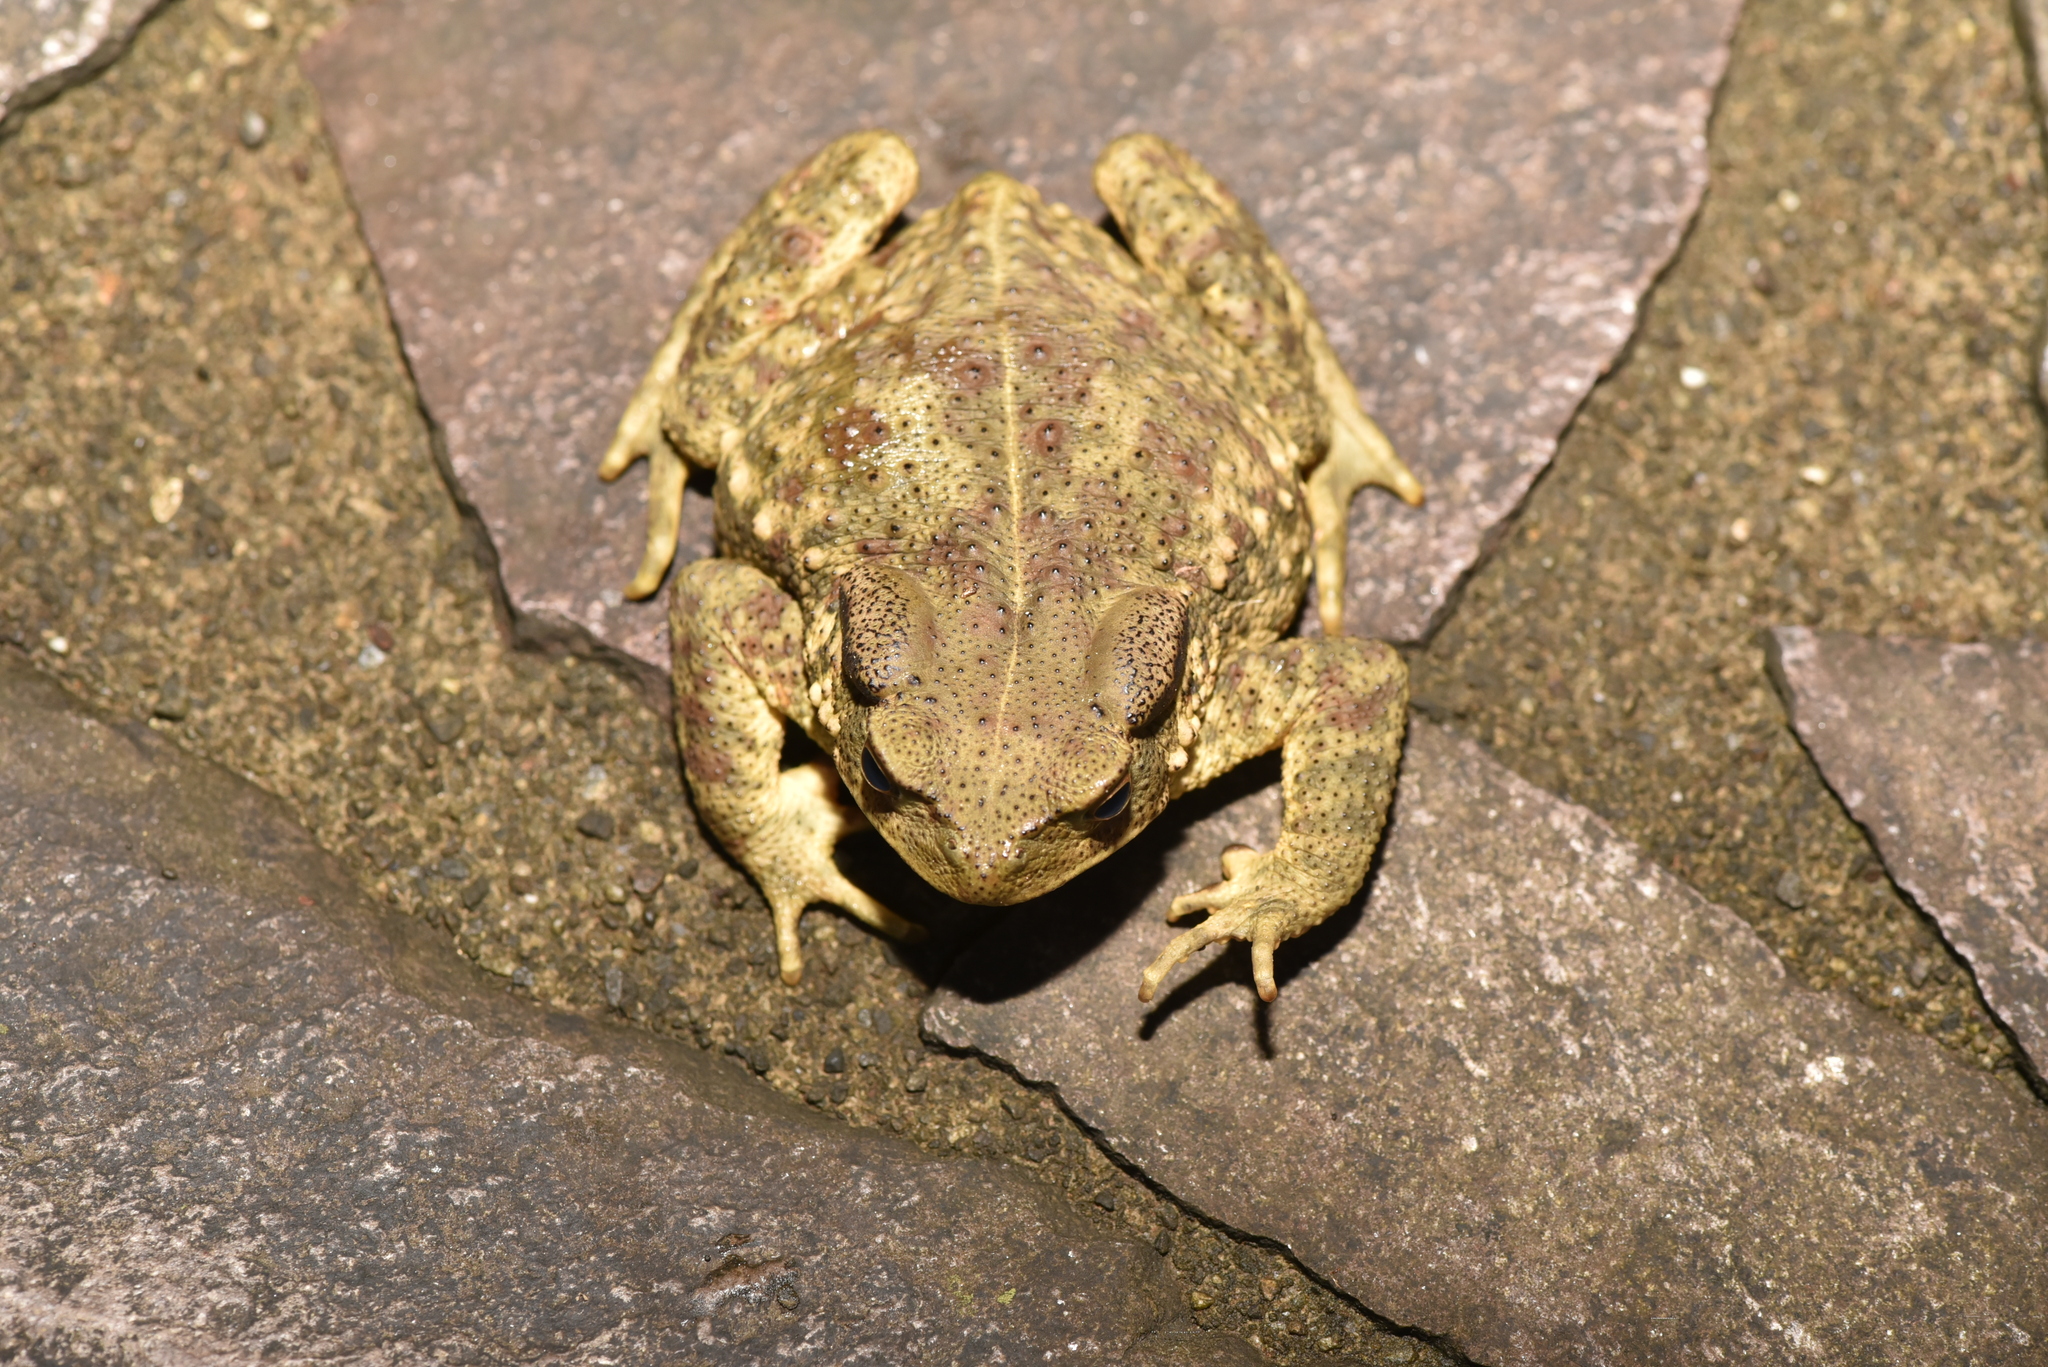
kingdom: Animalia
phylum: Chordata
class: Amphibia
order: Anura
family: Bufonidae
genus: Bufo
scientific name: Bufo bankorensis
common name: Bankor toad
